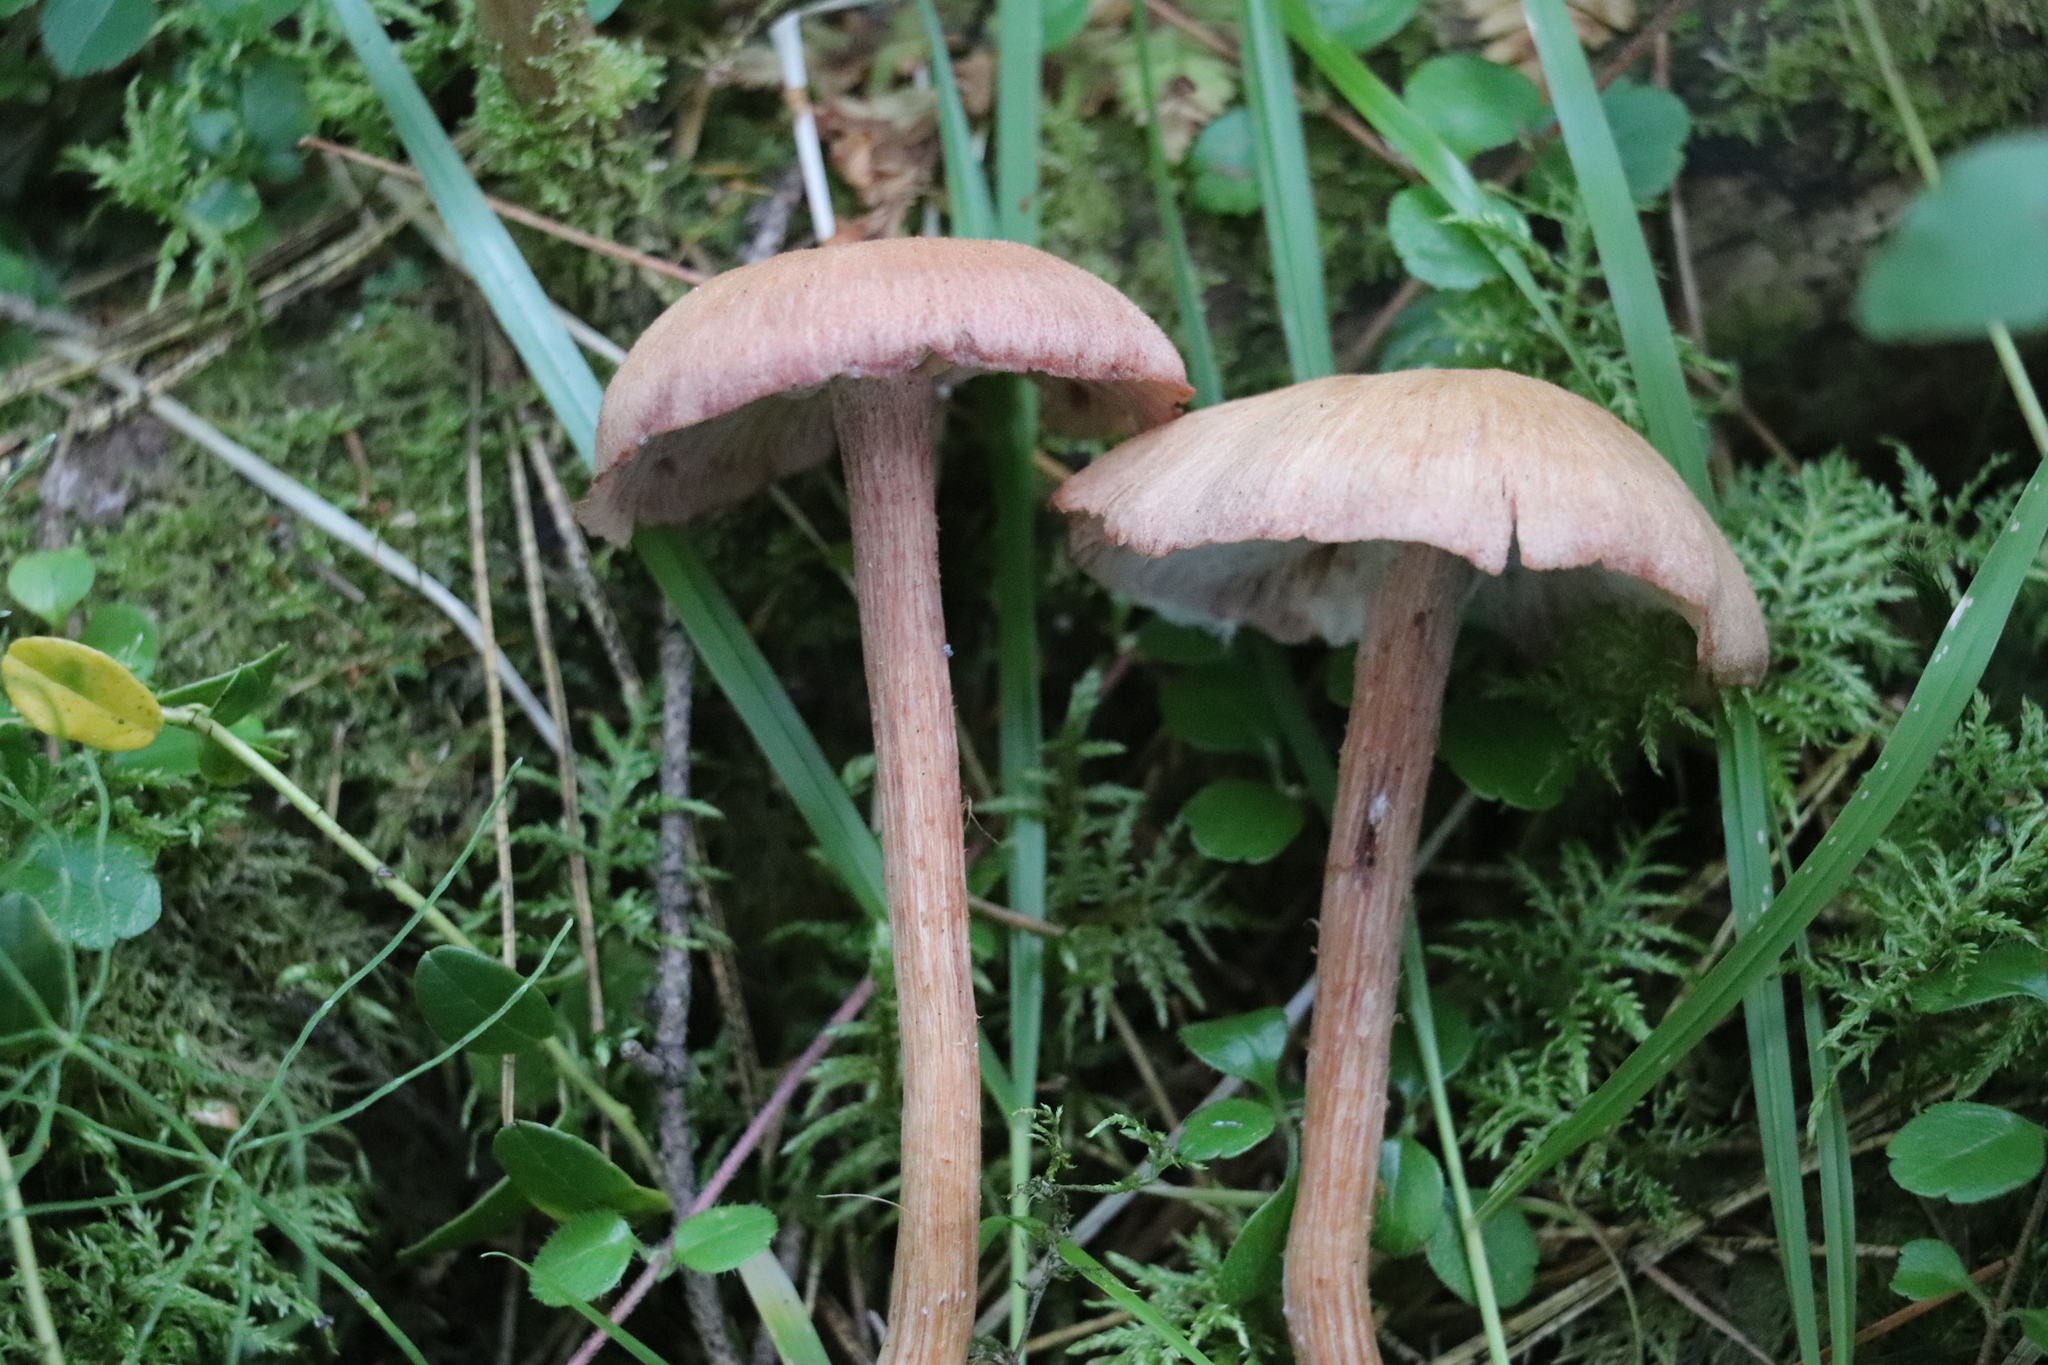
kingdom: Fungi
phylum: Basidiomycota
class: Agaricomycetes
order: Agaricales
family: Hydnangiaceae
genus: Laccaria
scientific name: Laccaria proxima
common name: Scurfy deceiver
